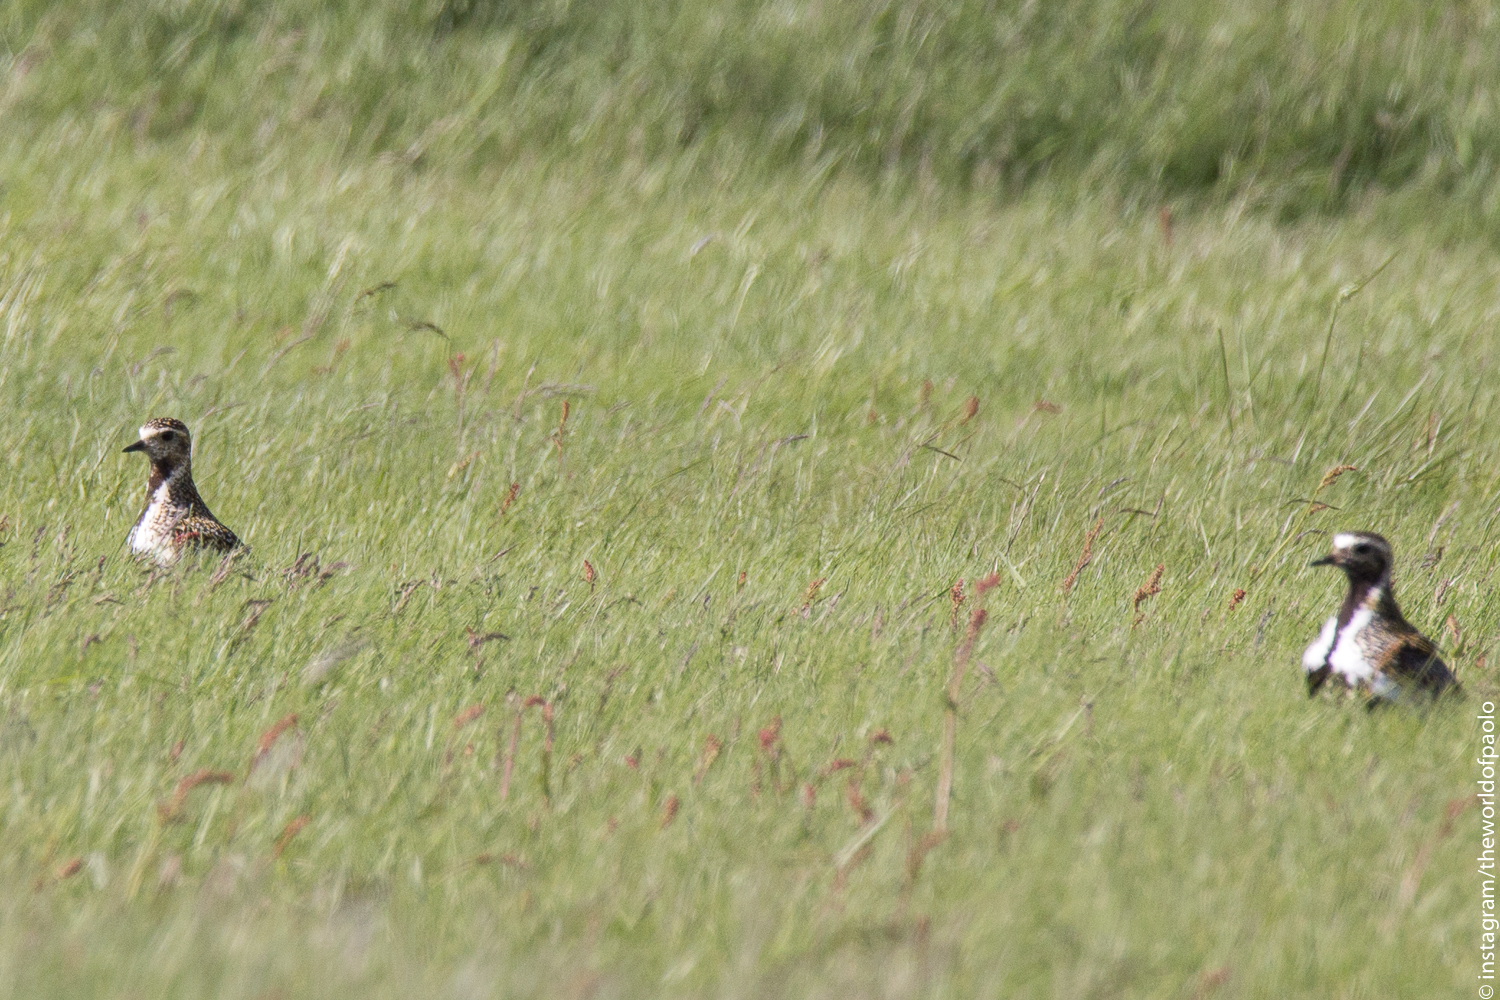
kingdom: Animalia
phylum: Chordata
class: Aves
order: Charadriiformes
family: Charadriidae
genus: Pluvialis
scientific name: Pluvialis apricaria
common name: European golden plover
